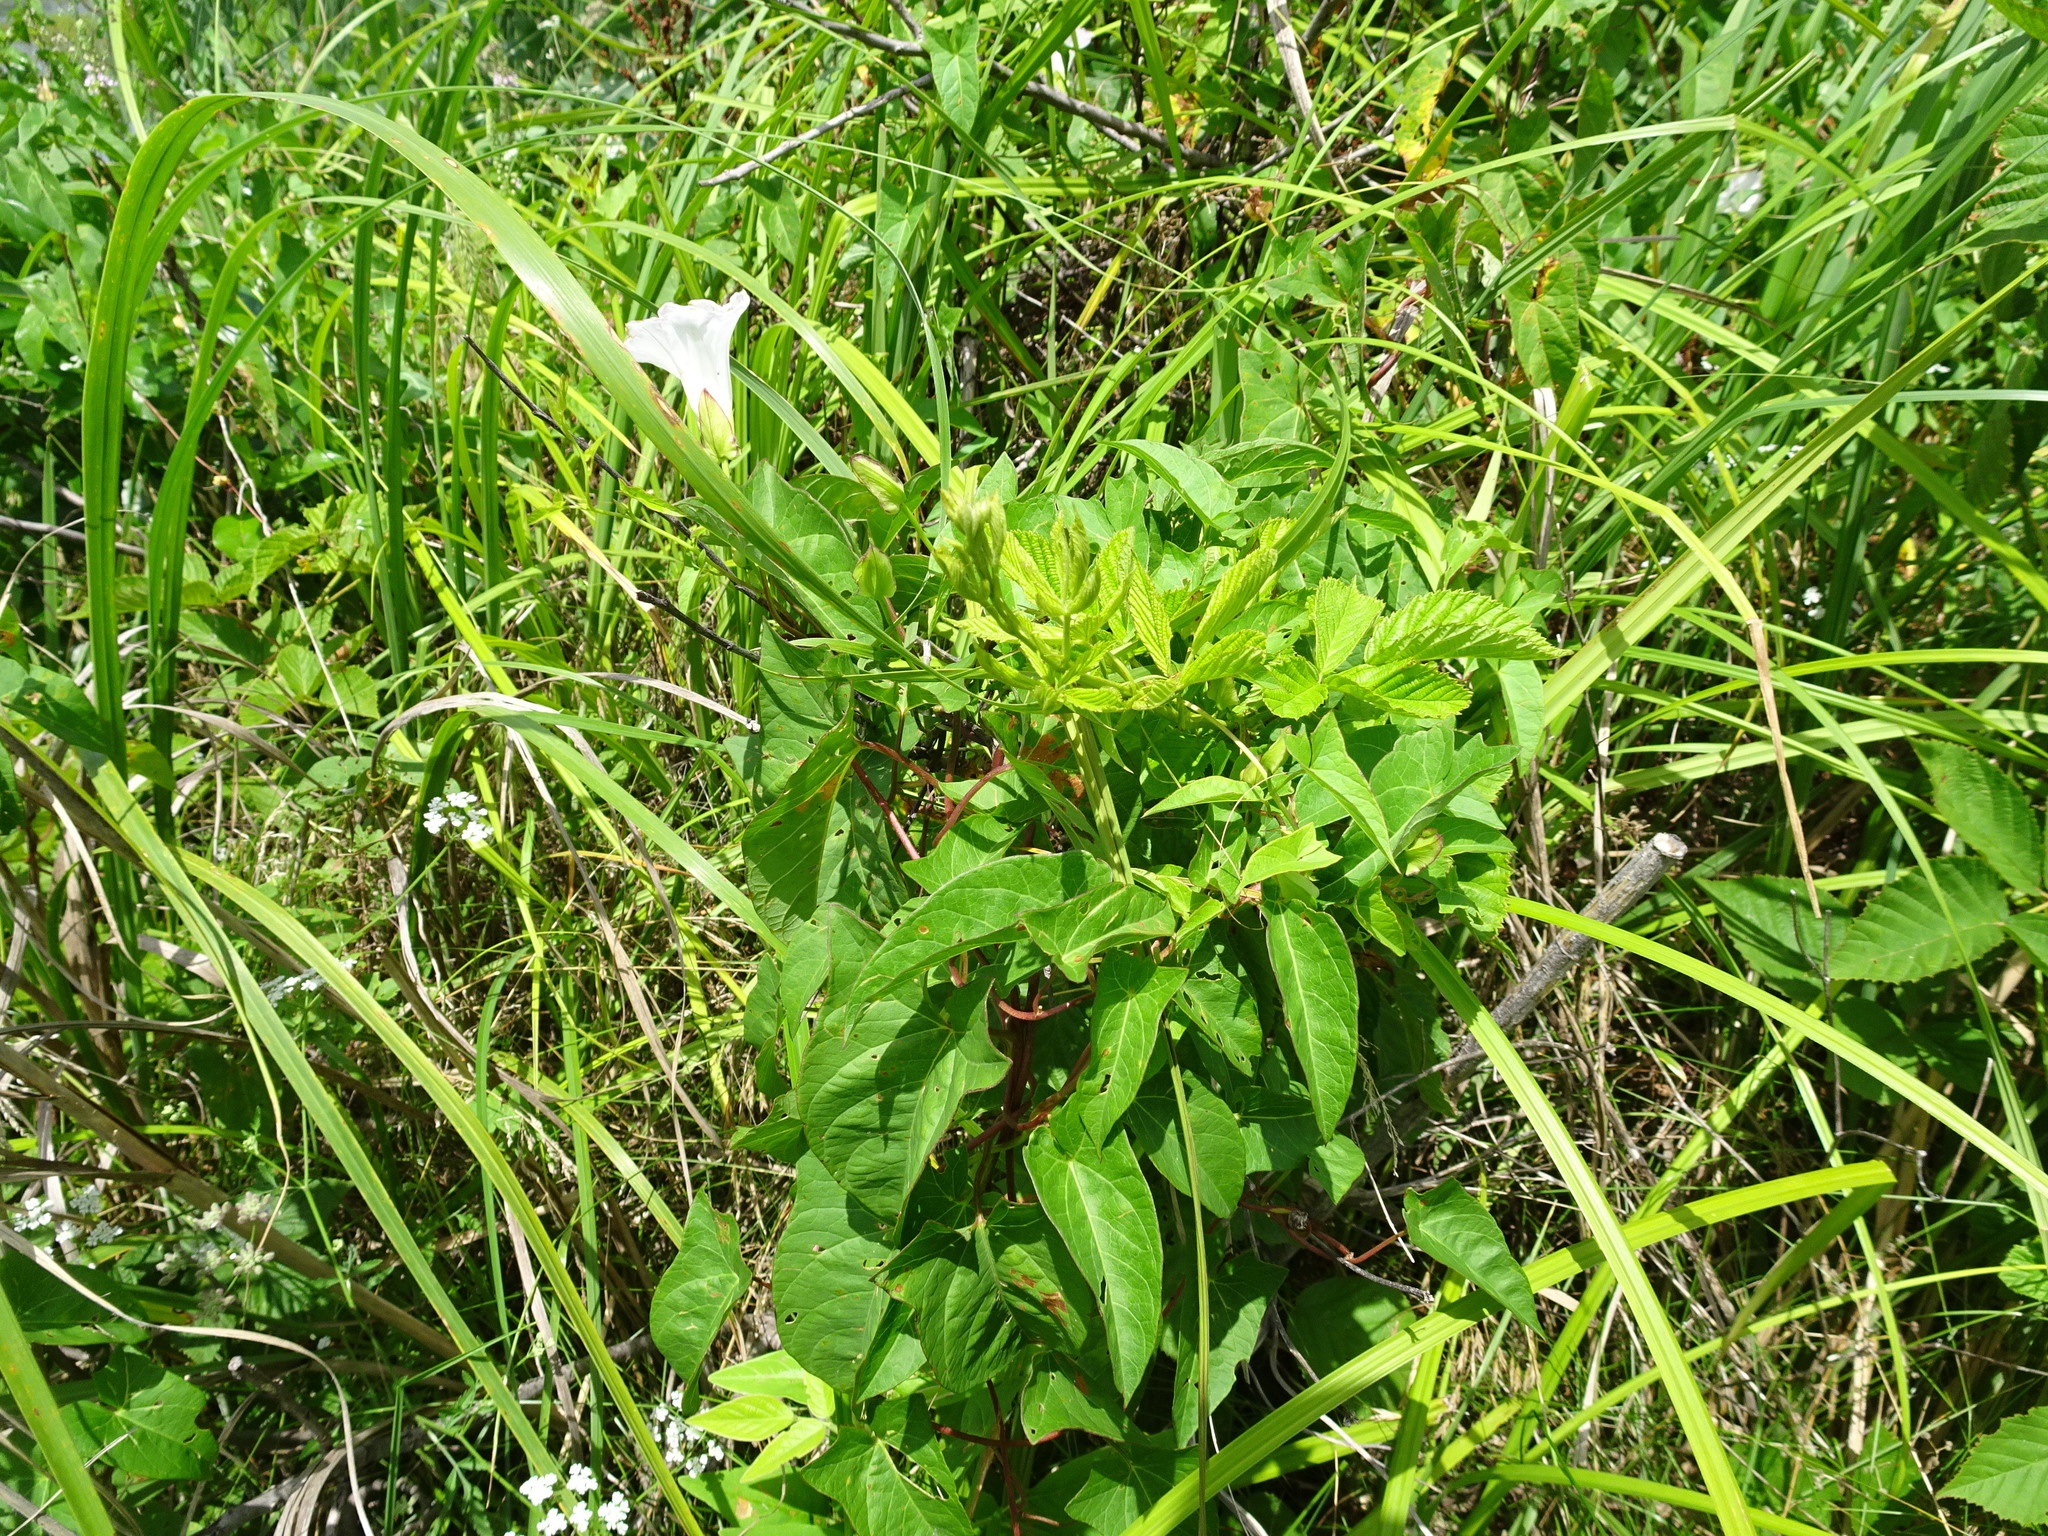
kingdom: Plantae
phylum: Tracheophyta
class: Magnoliopsida
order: Solanales
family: Convolvulaceae
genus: Calystegia
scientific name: Calystegia sepium
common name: Hedge bindweed
